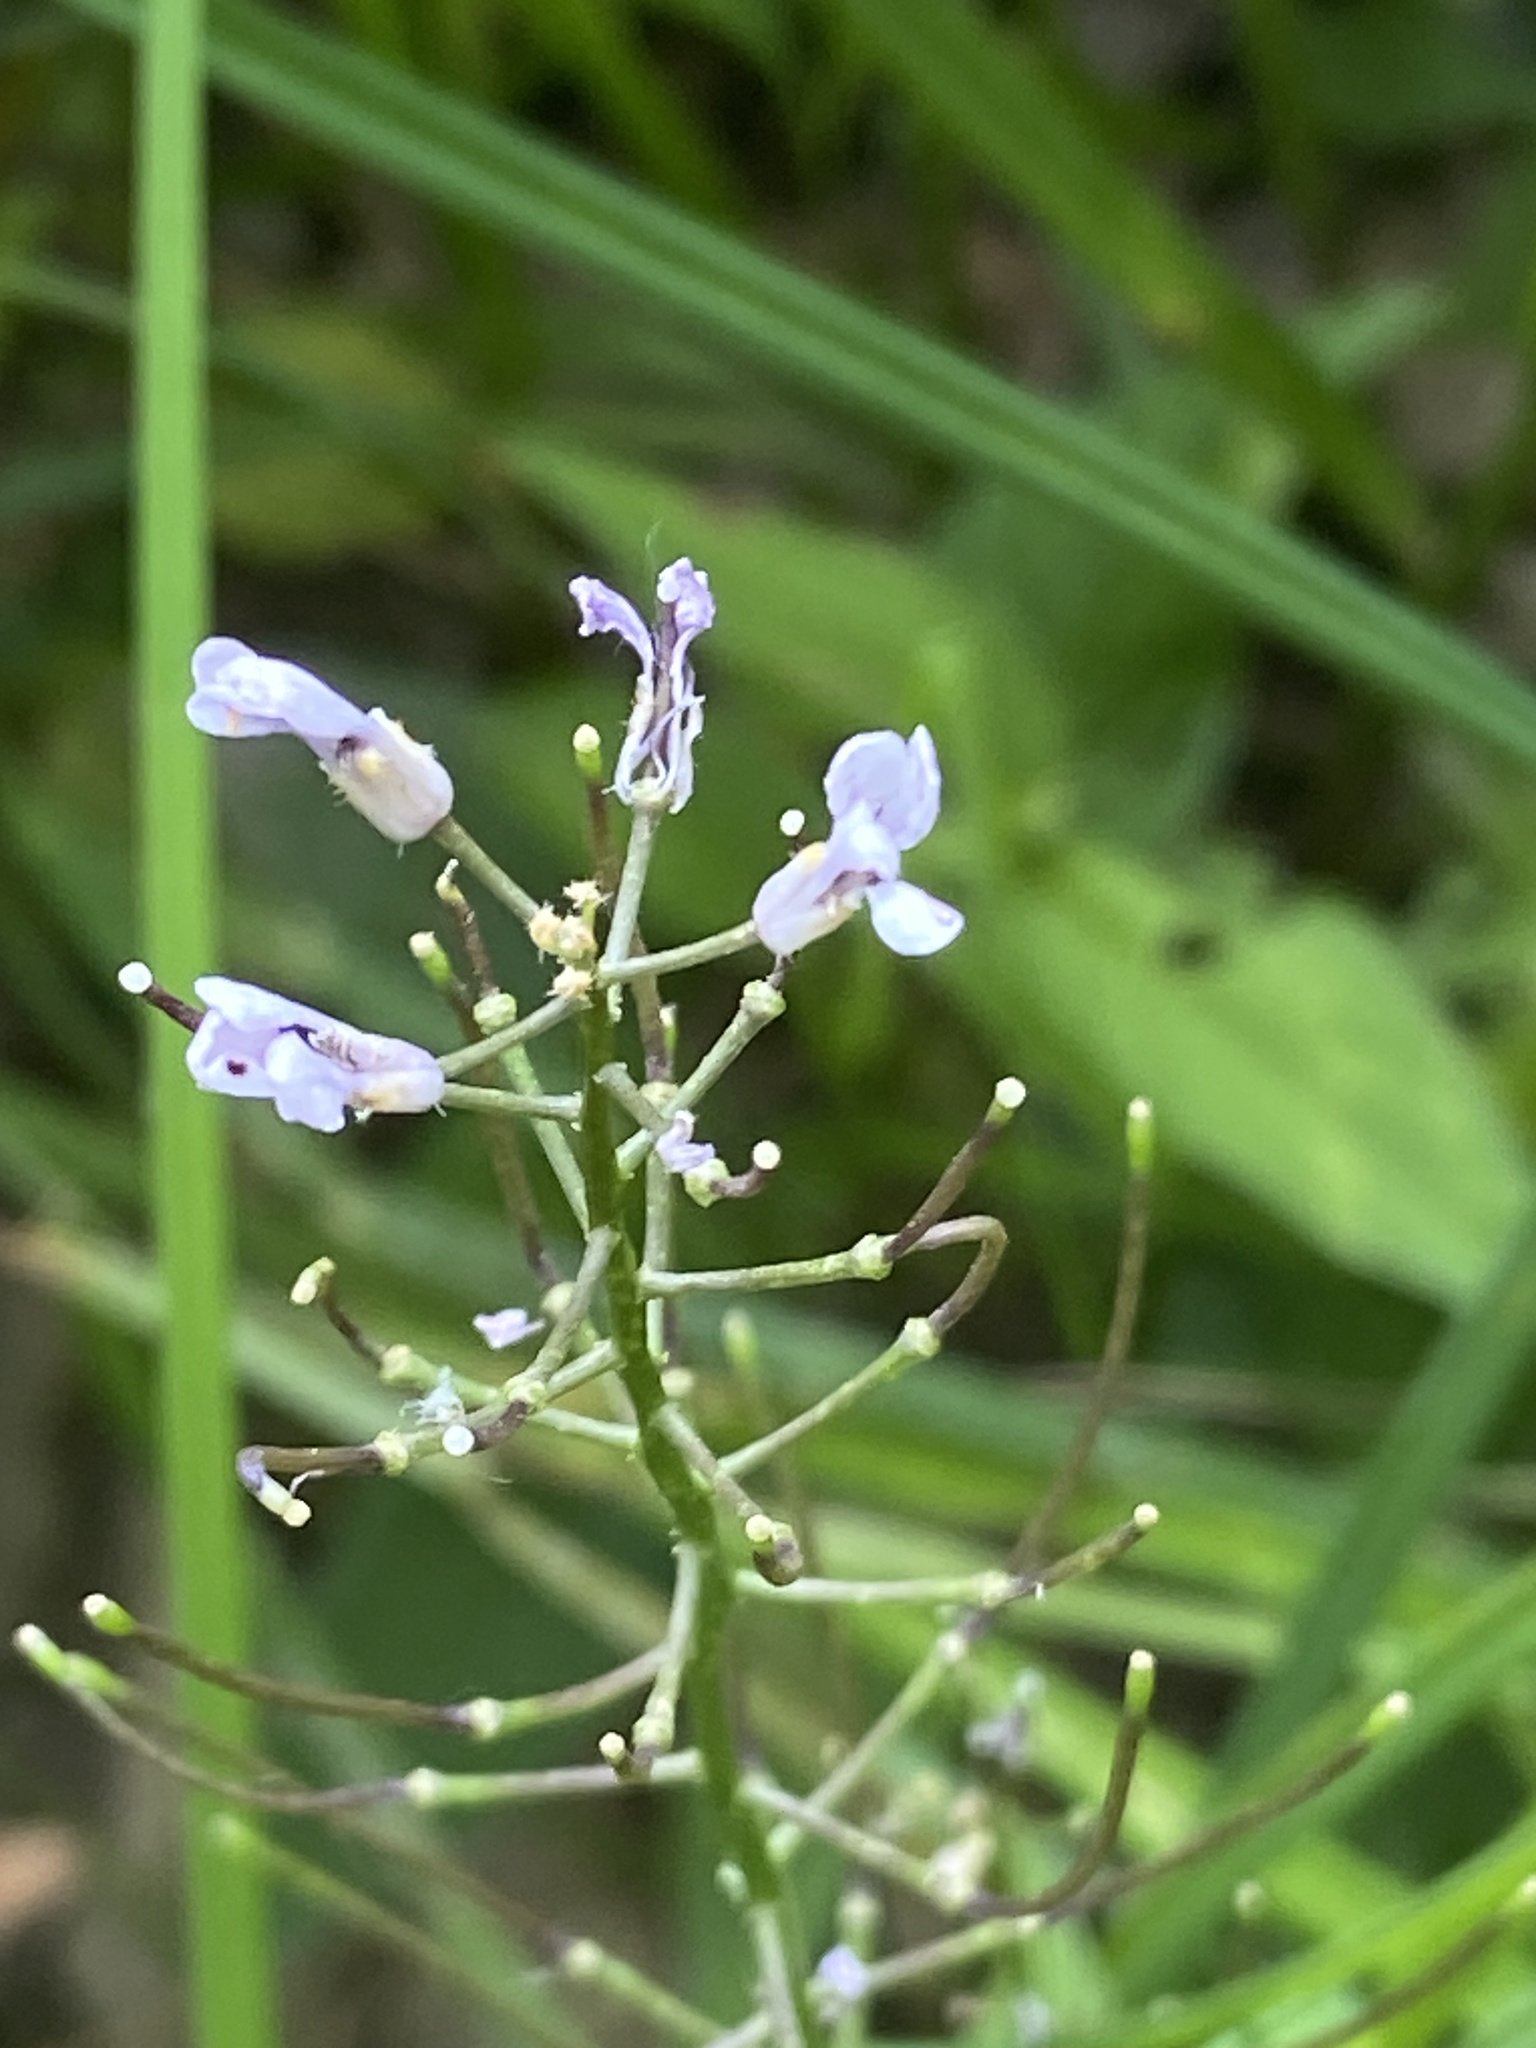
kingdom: Plantae
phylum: Tracheophyta
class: Magnoliopsida
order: Brassicales
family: Brassicaceae
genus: Iodanthus
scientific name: Iodanthus pinnatifidus
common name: Violet rocket
